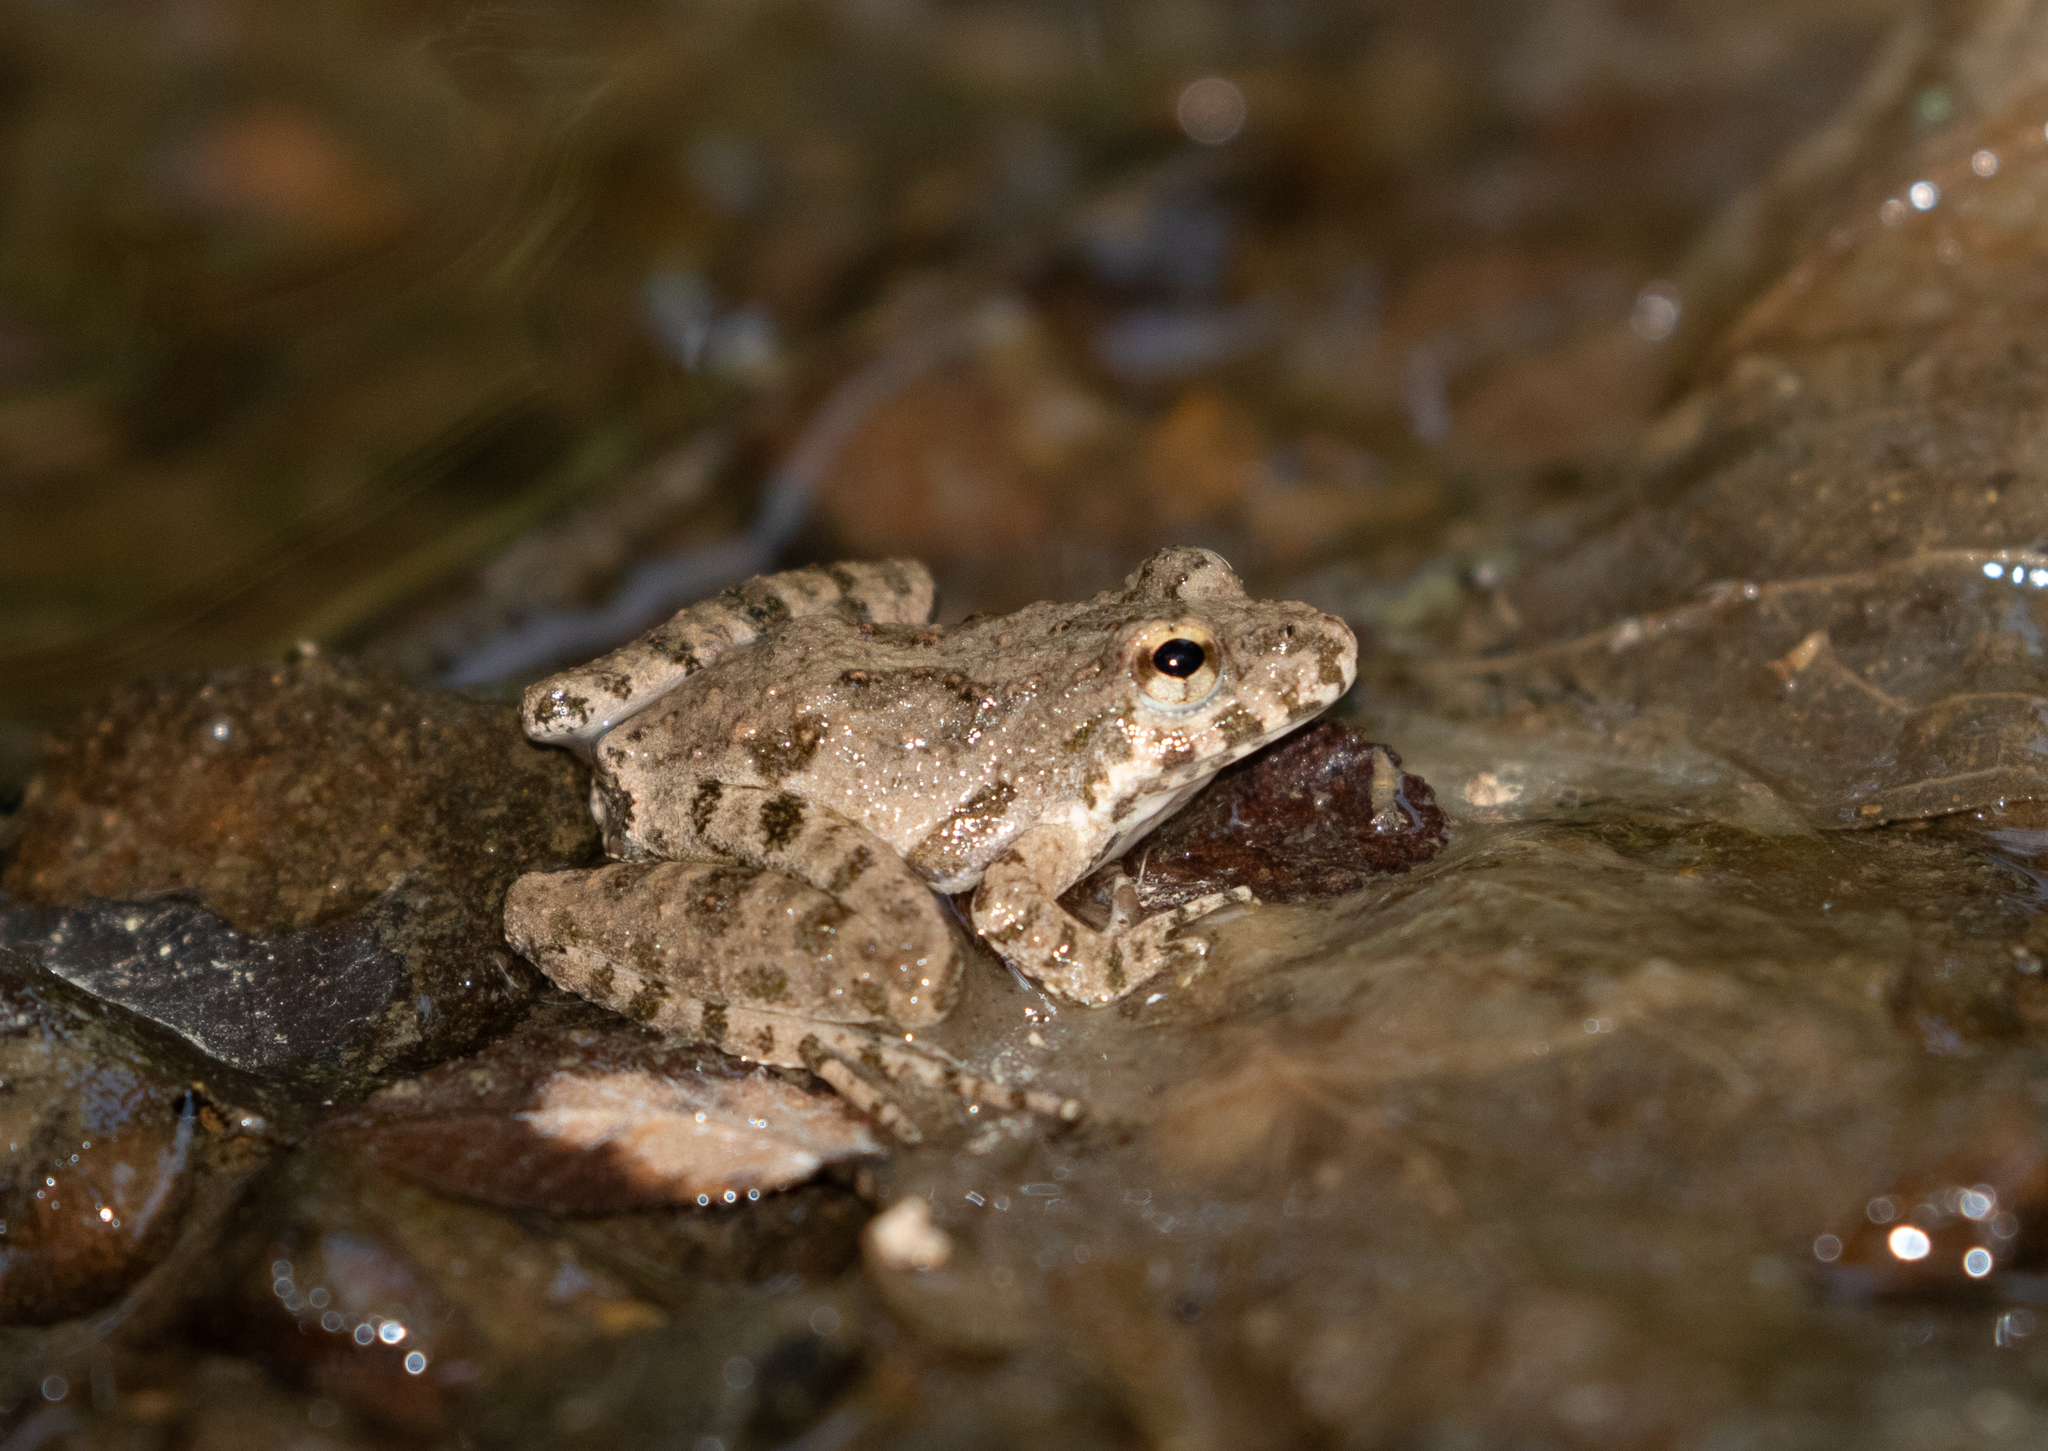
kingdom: Animalia
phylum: Chordata
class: Amphibia
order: Anura
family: Hylidae
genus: Acris
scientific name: Acris blanchardi
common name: Blanchard's cricket frog
